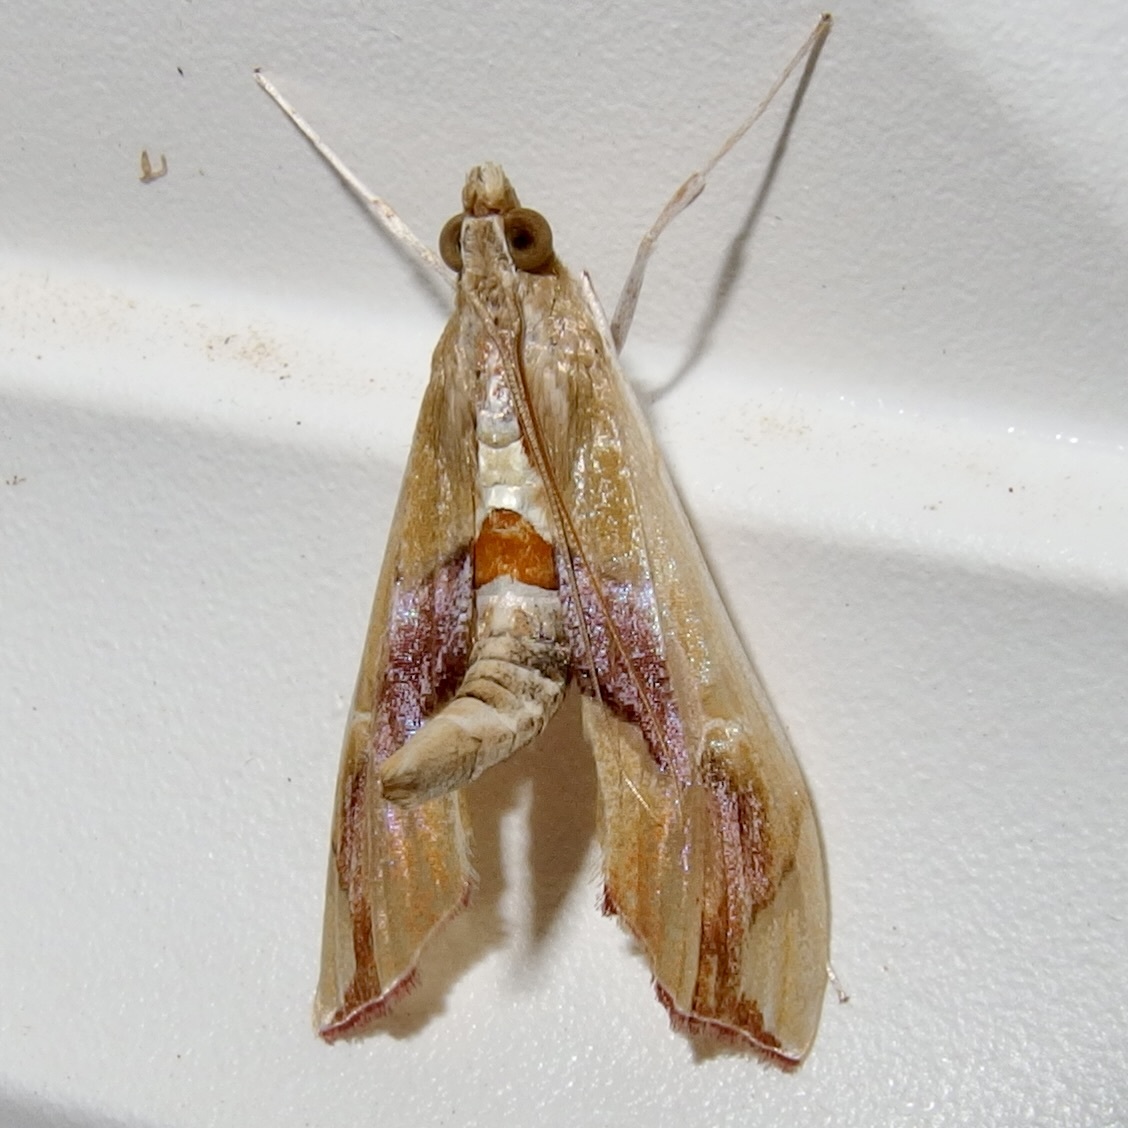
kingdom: Animalia
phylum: Arthropoda
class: Insecta
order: Lepidoptera
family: Crambidae
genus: Agathodes
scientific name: Agathodes monstralis
